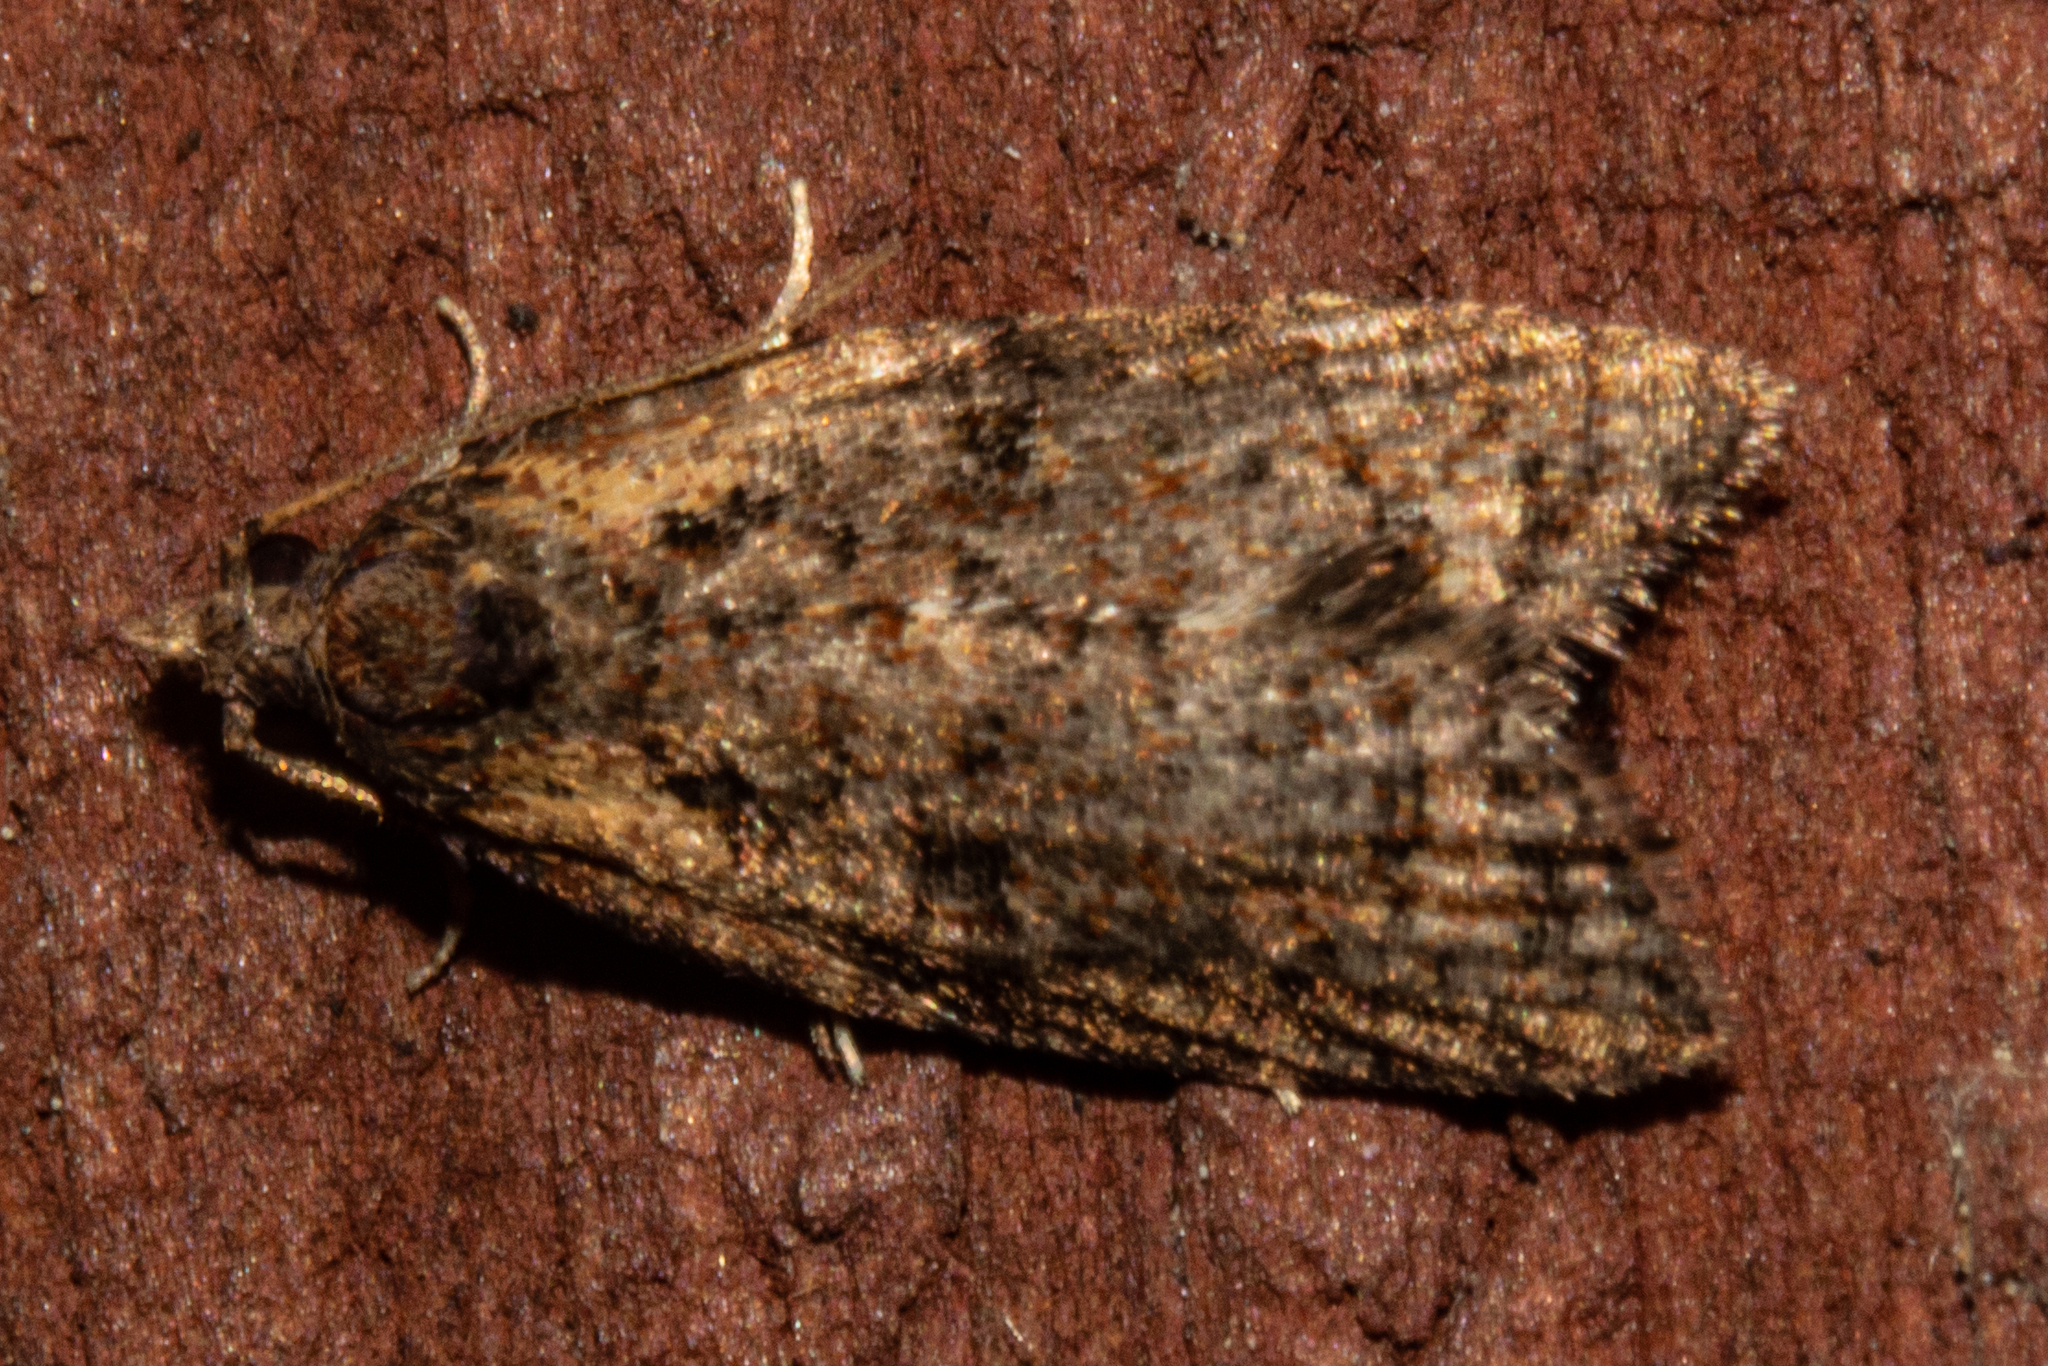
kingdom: Animalia
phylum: Arthropoda
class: Insecta
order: Lepidoptera
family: Tortricidae
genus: Capua
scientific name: Capua intractana
